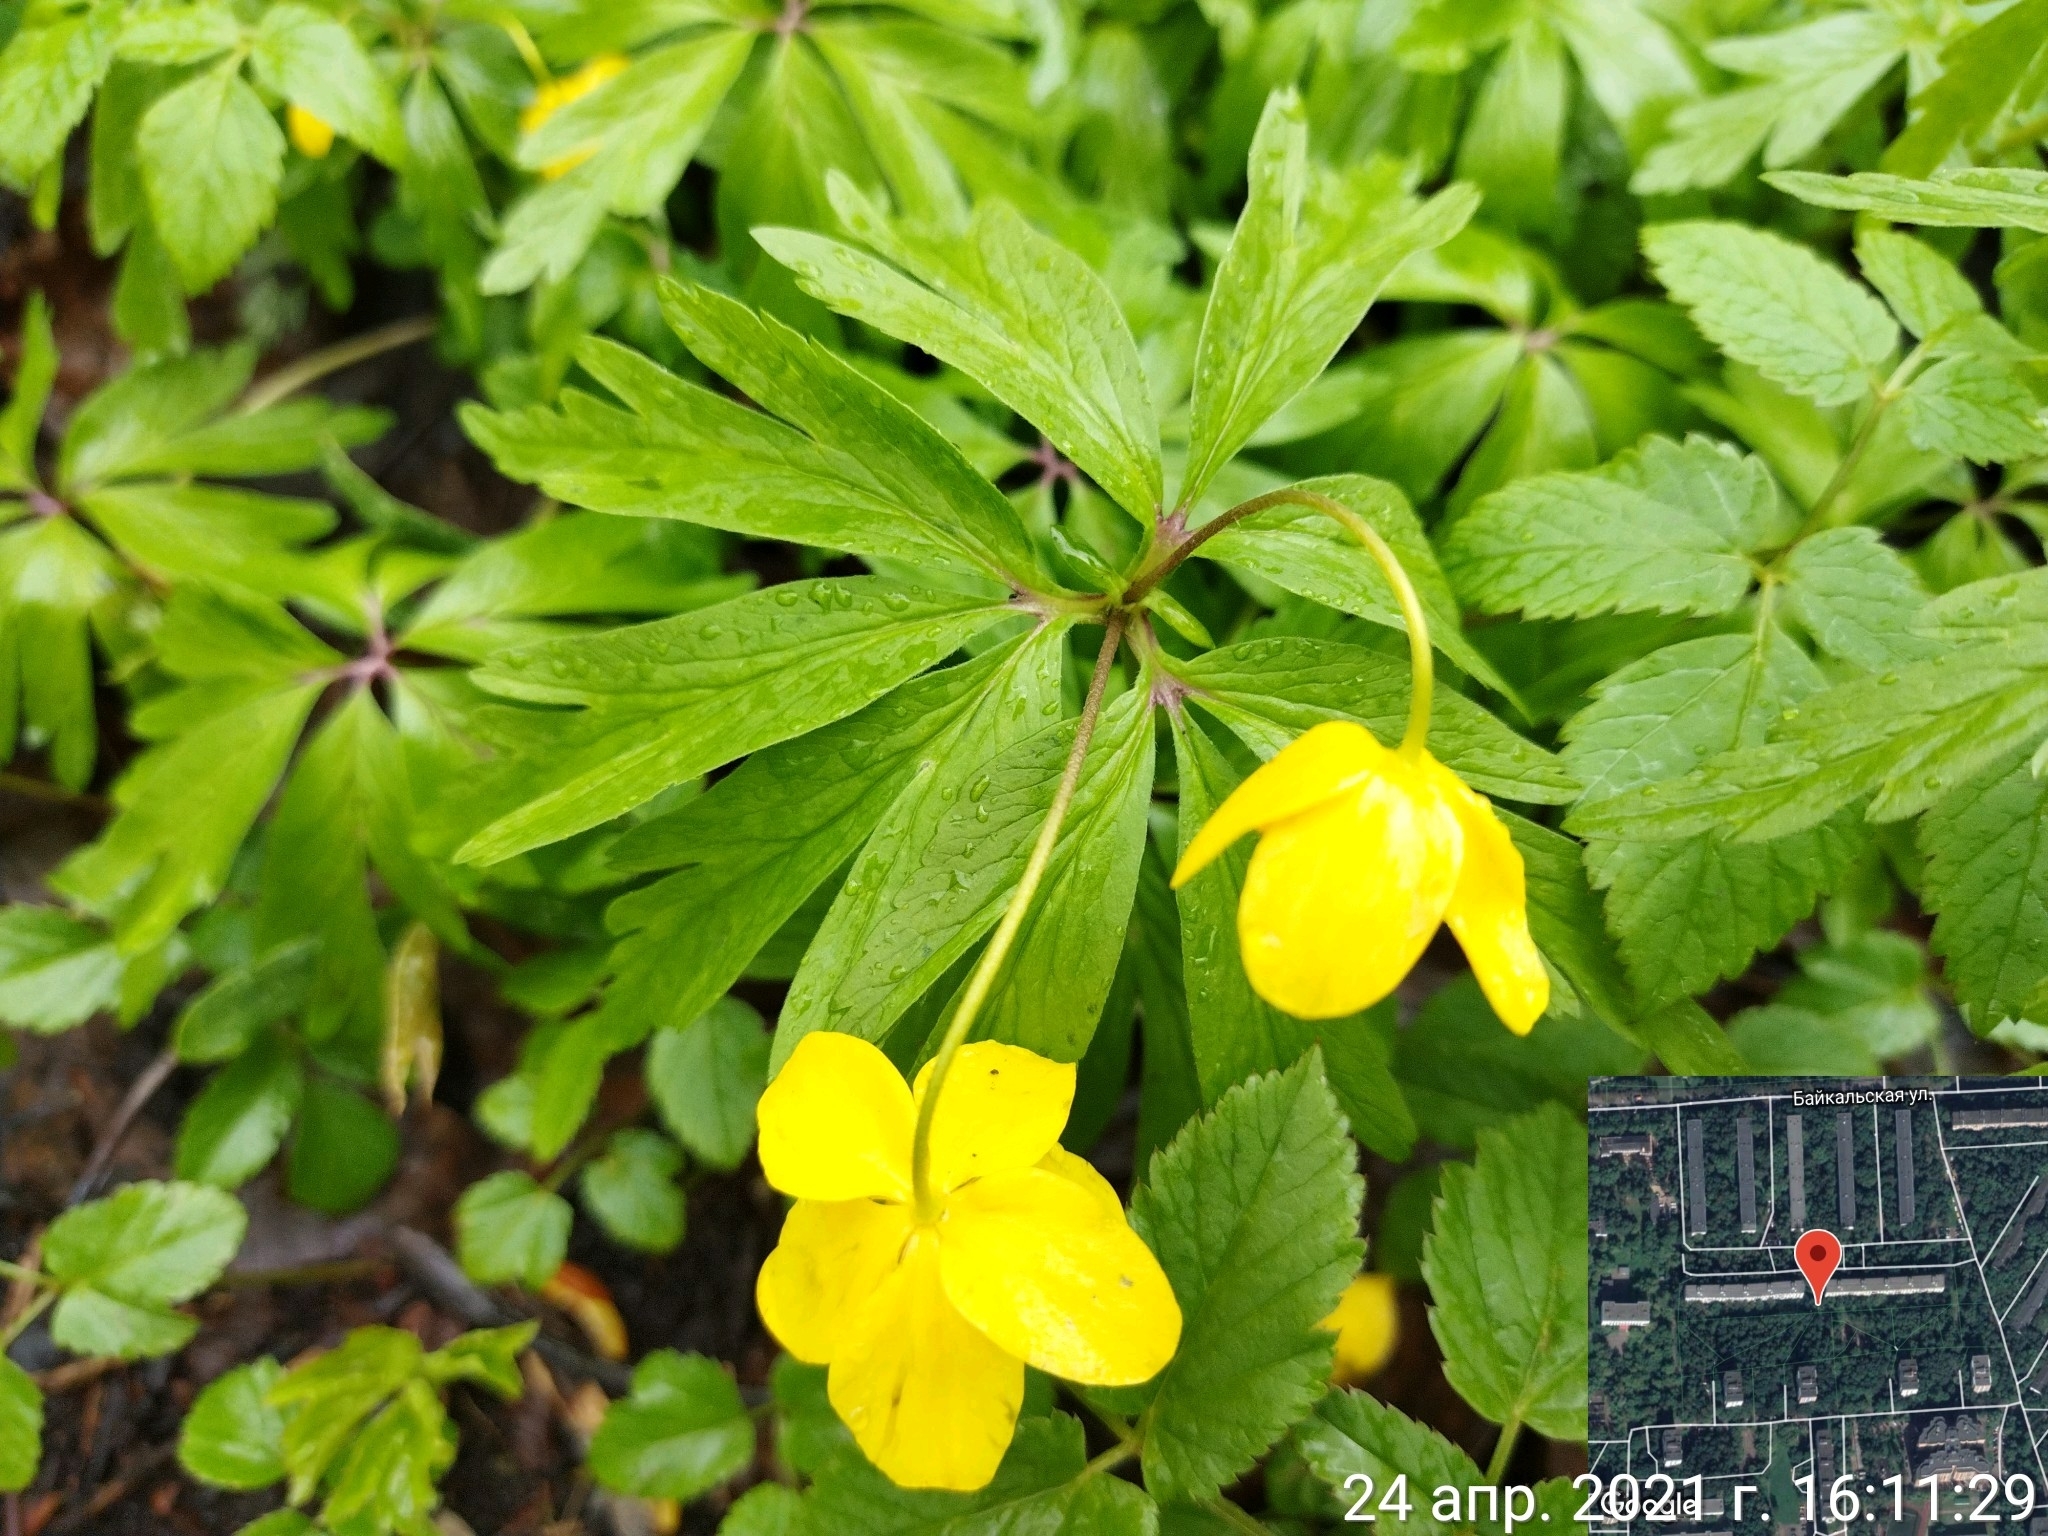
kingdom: Plantae
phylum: Tracheophyta
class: Magnoliopsida
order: Ranunculales
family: Ranunculaceae
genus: Anemone
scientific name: Anemone ranunculoides
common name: Yellow anemone
